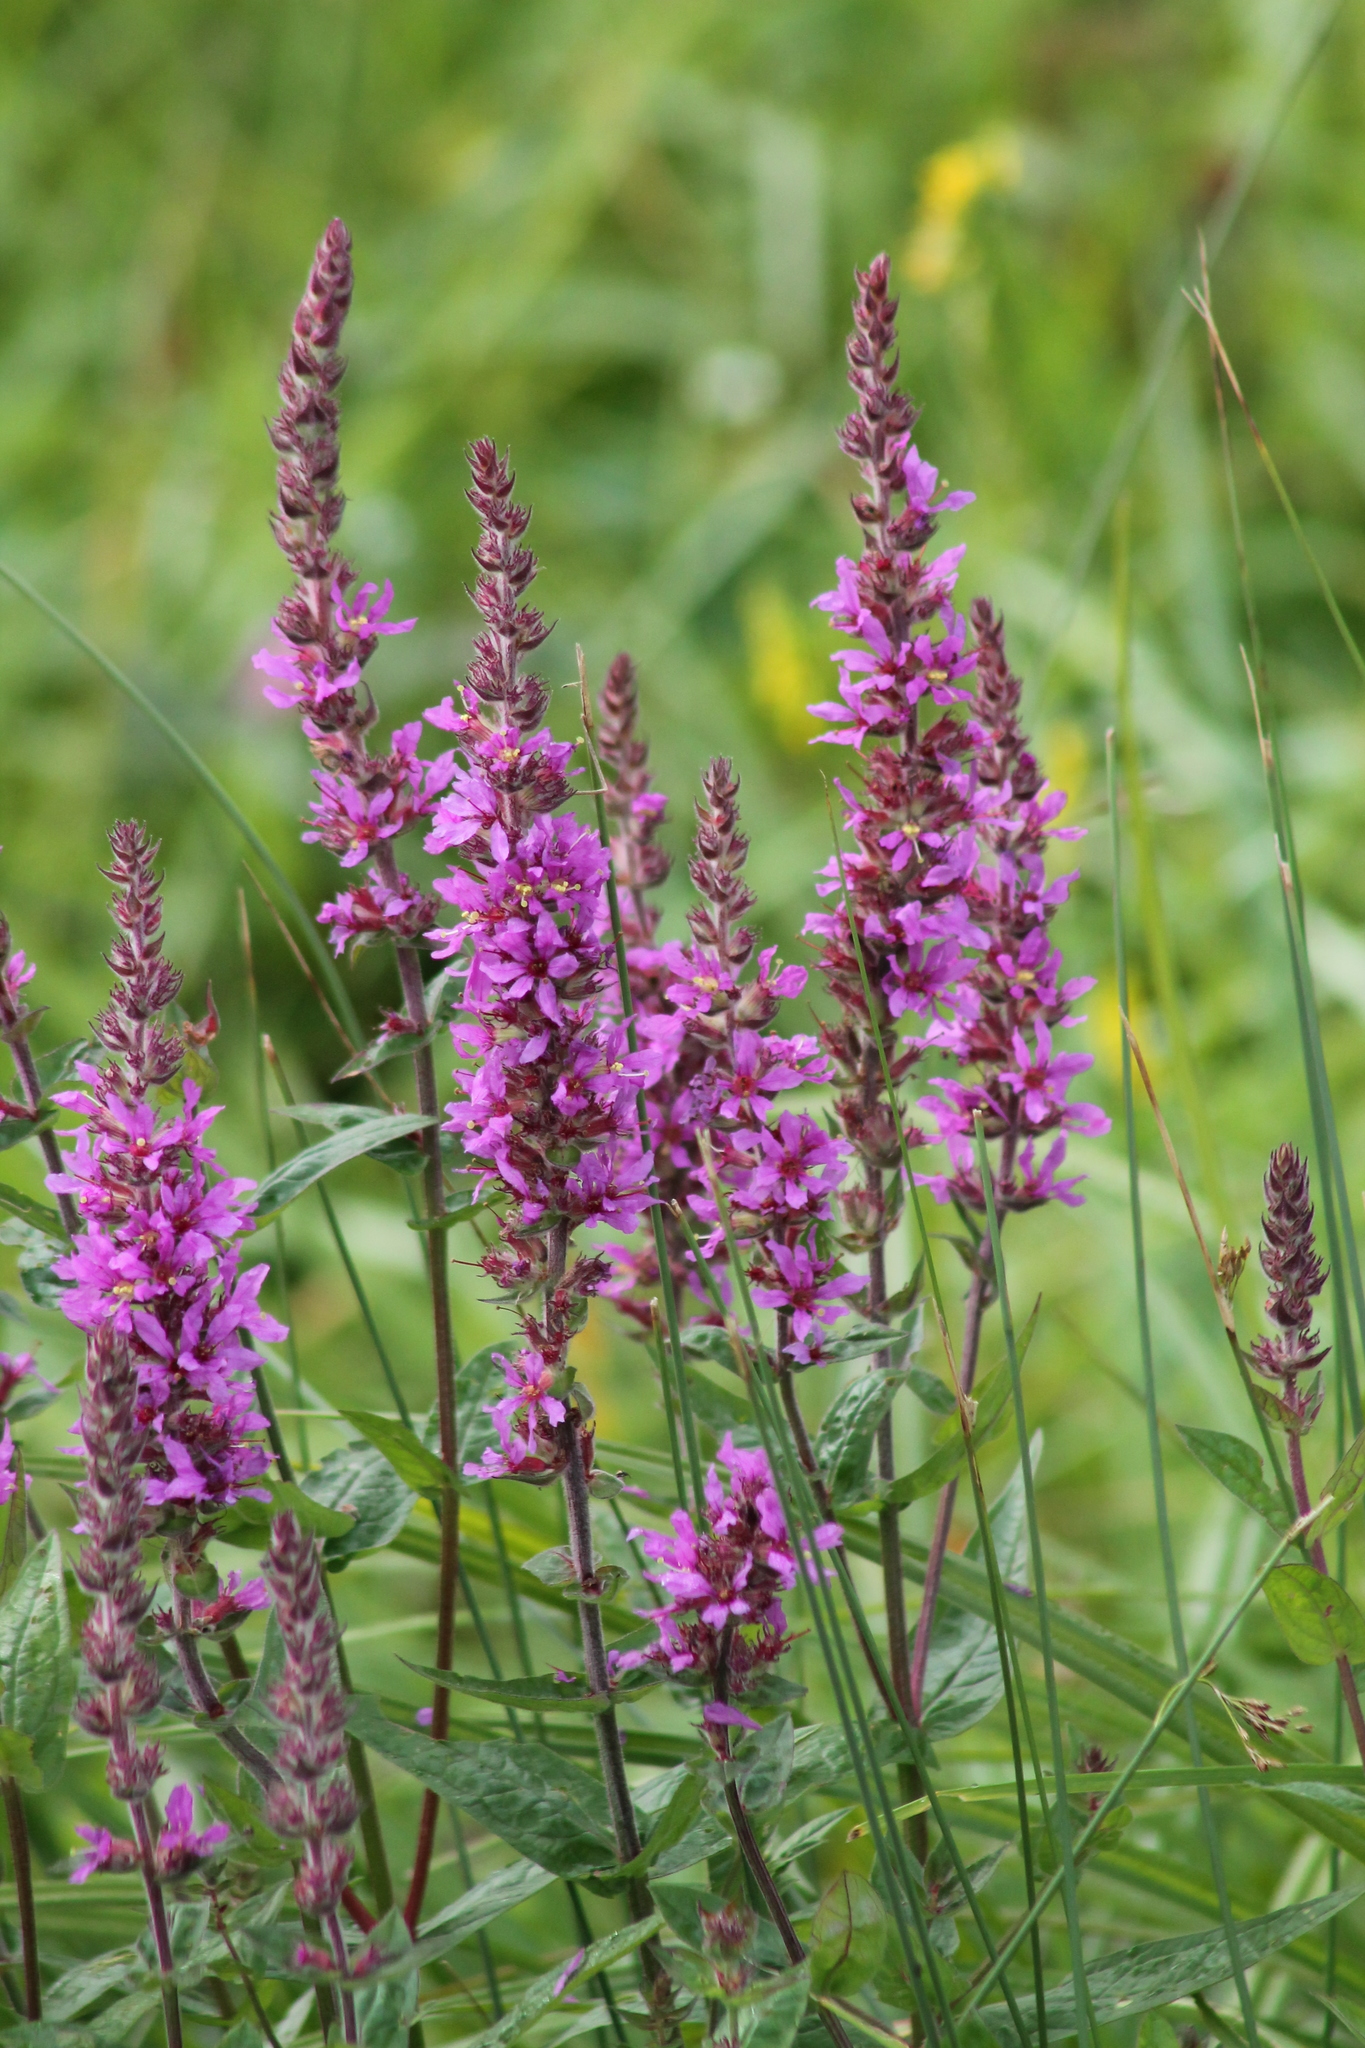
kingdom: Plantae
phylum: Tracheophyta
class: Magnoliopsida
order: Myrtales
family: Lythraceae
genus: Lythrum
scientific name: Lythrum salicaria
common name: Purple loosestrife
